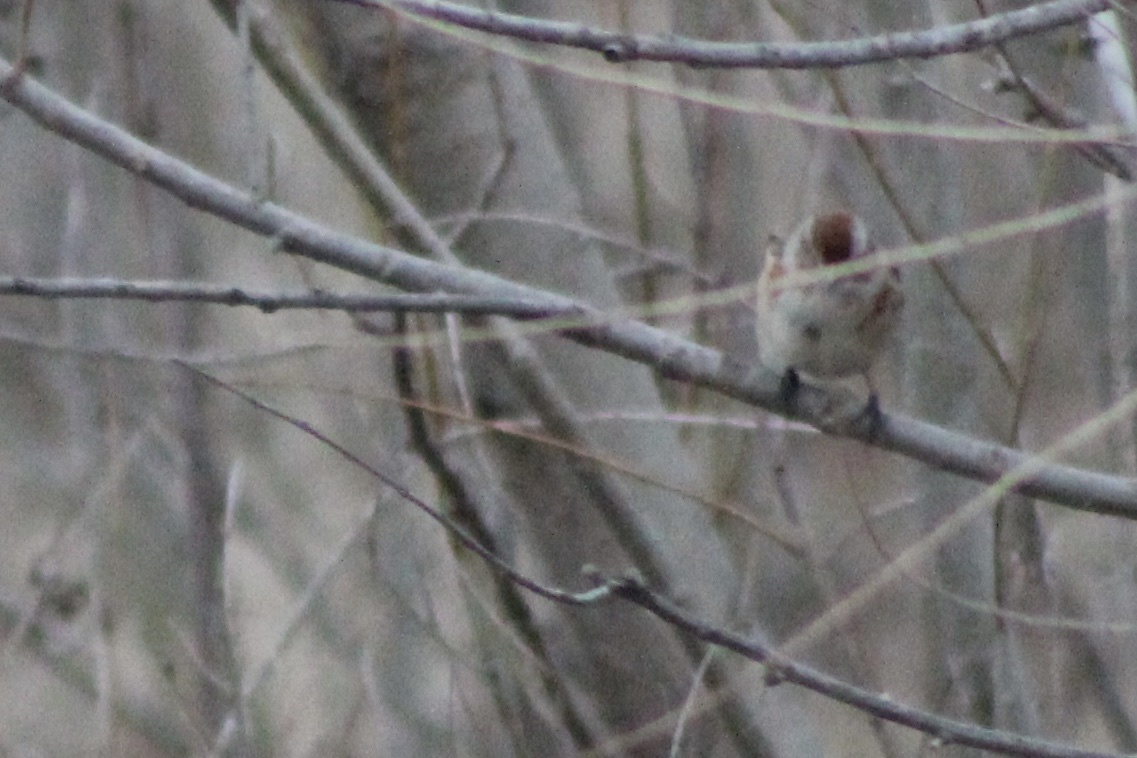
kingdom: Animalia
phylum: Chordata
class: Aves
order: Passeriformes
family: Passerellidae
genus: Spizelloides
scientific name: Spizelloides arborea
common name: American tree sparrow
